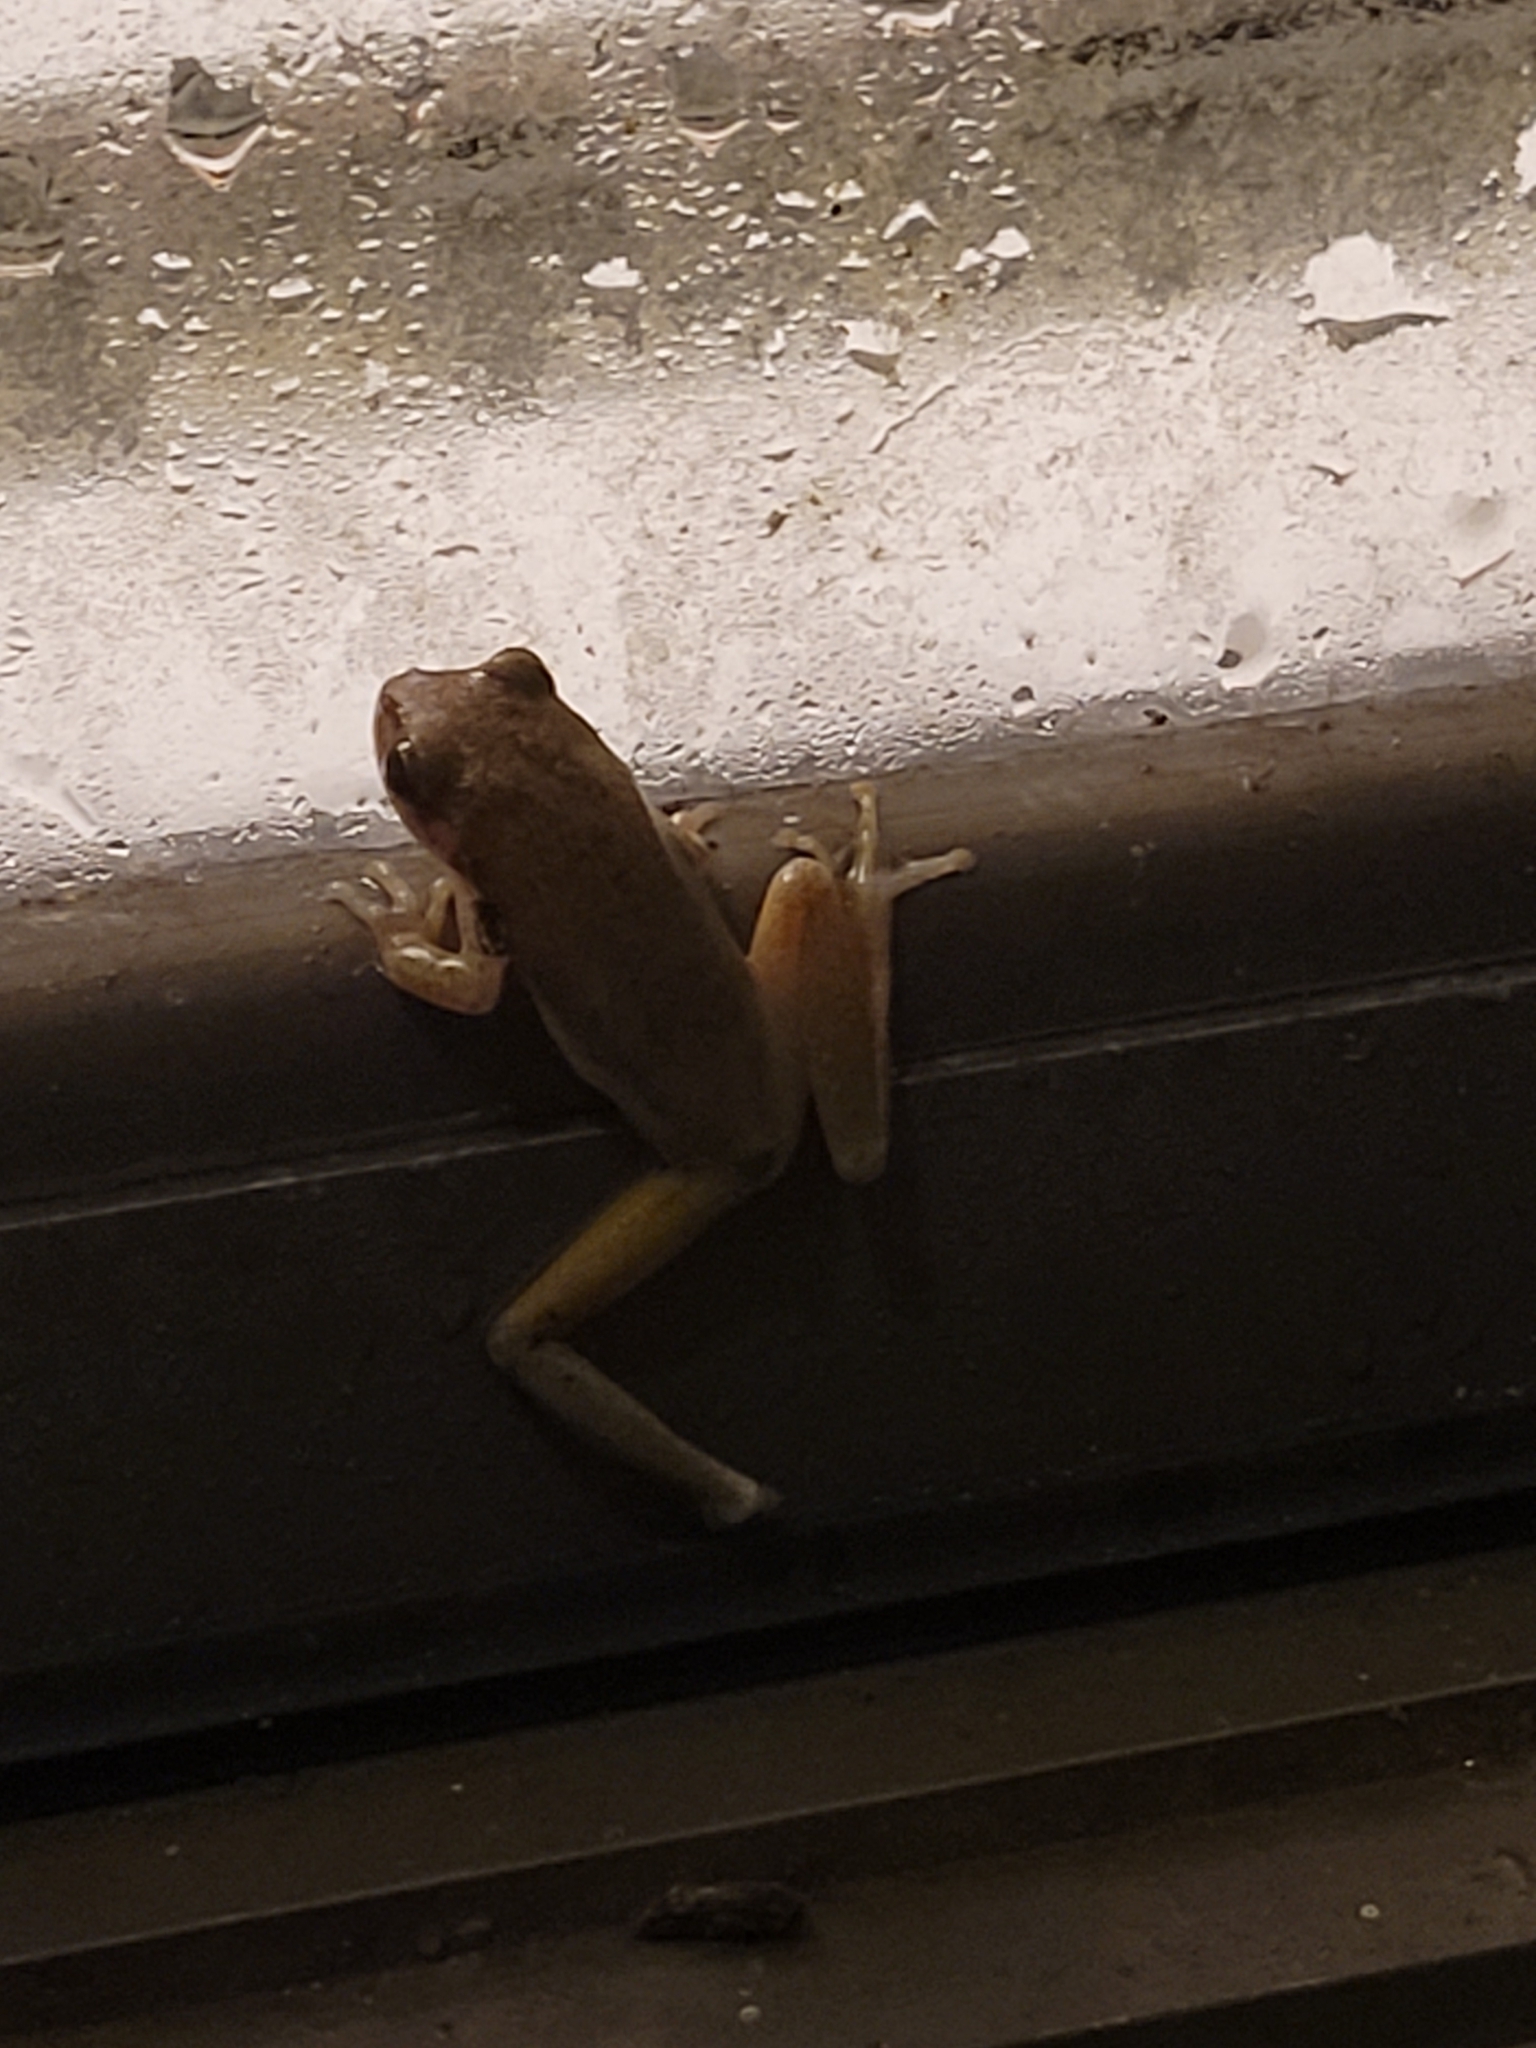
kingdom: Animalia
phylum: Chordata
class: Amphibia
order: Anura
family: Hylidae
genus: Dryophytes
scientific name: Dryophytes squirellus
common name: Squirrel treefrog
